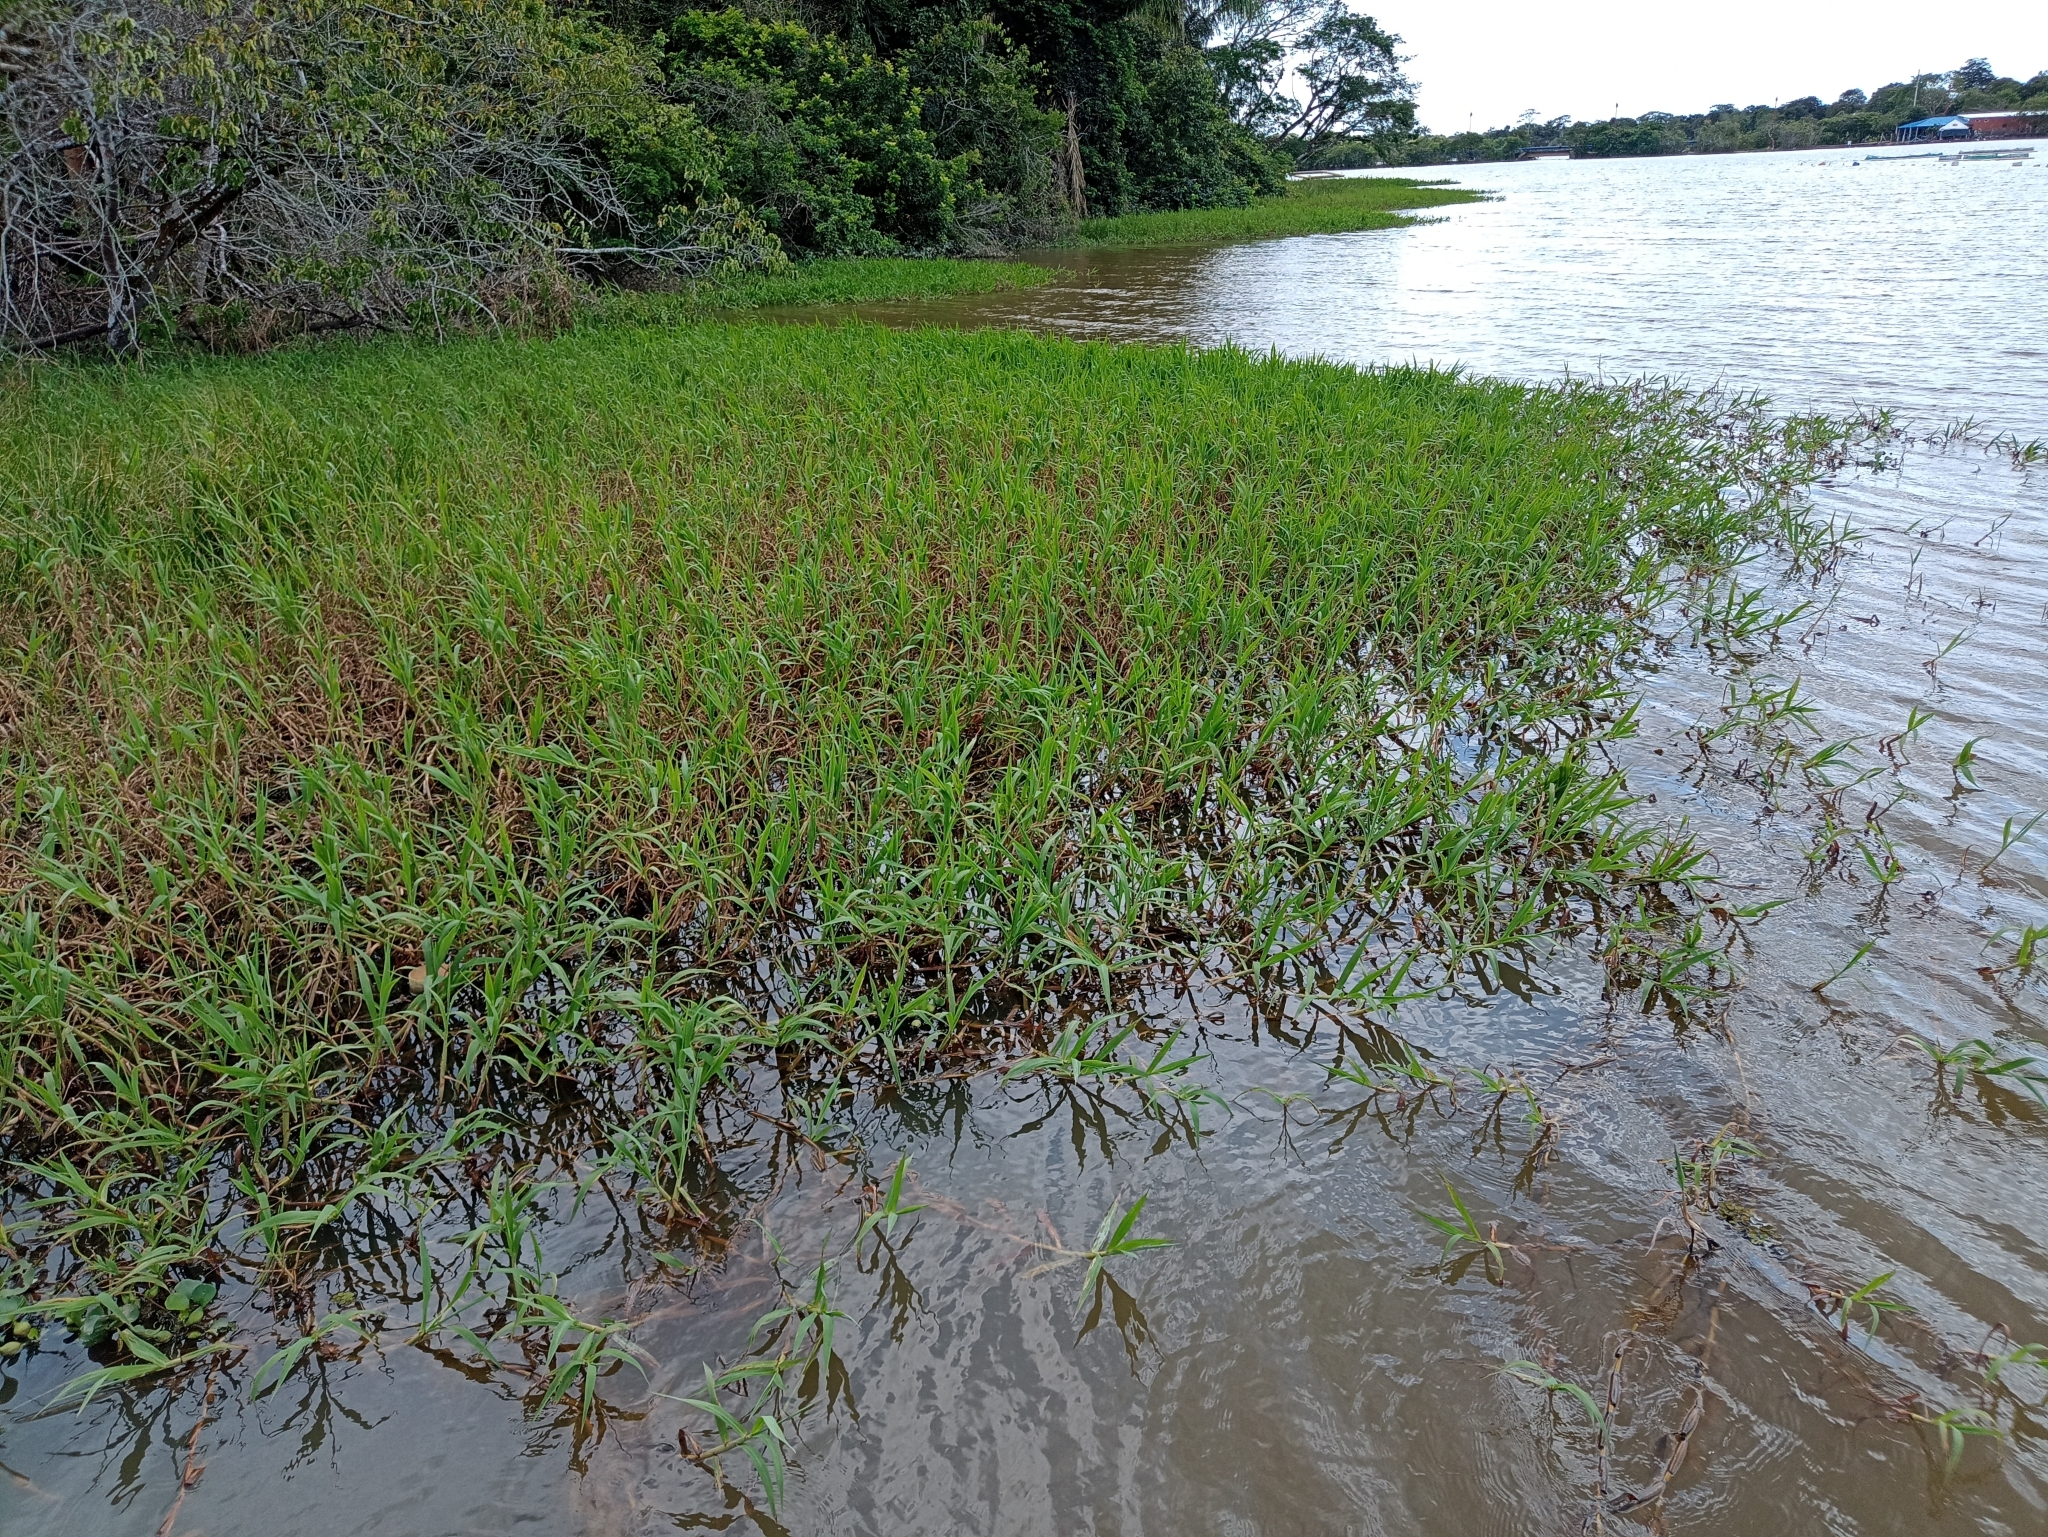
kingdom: Plantae
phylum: Tracheophyta
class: Liliopsida
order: Poales
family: Poaceae
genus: Paspalum
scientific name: Paspalum repens
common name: Water paspalum
